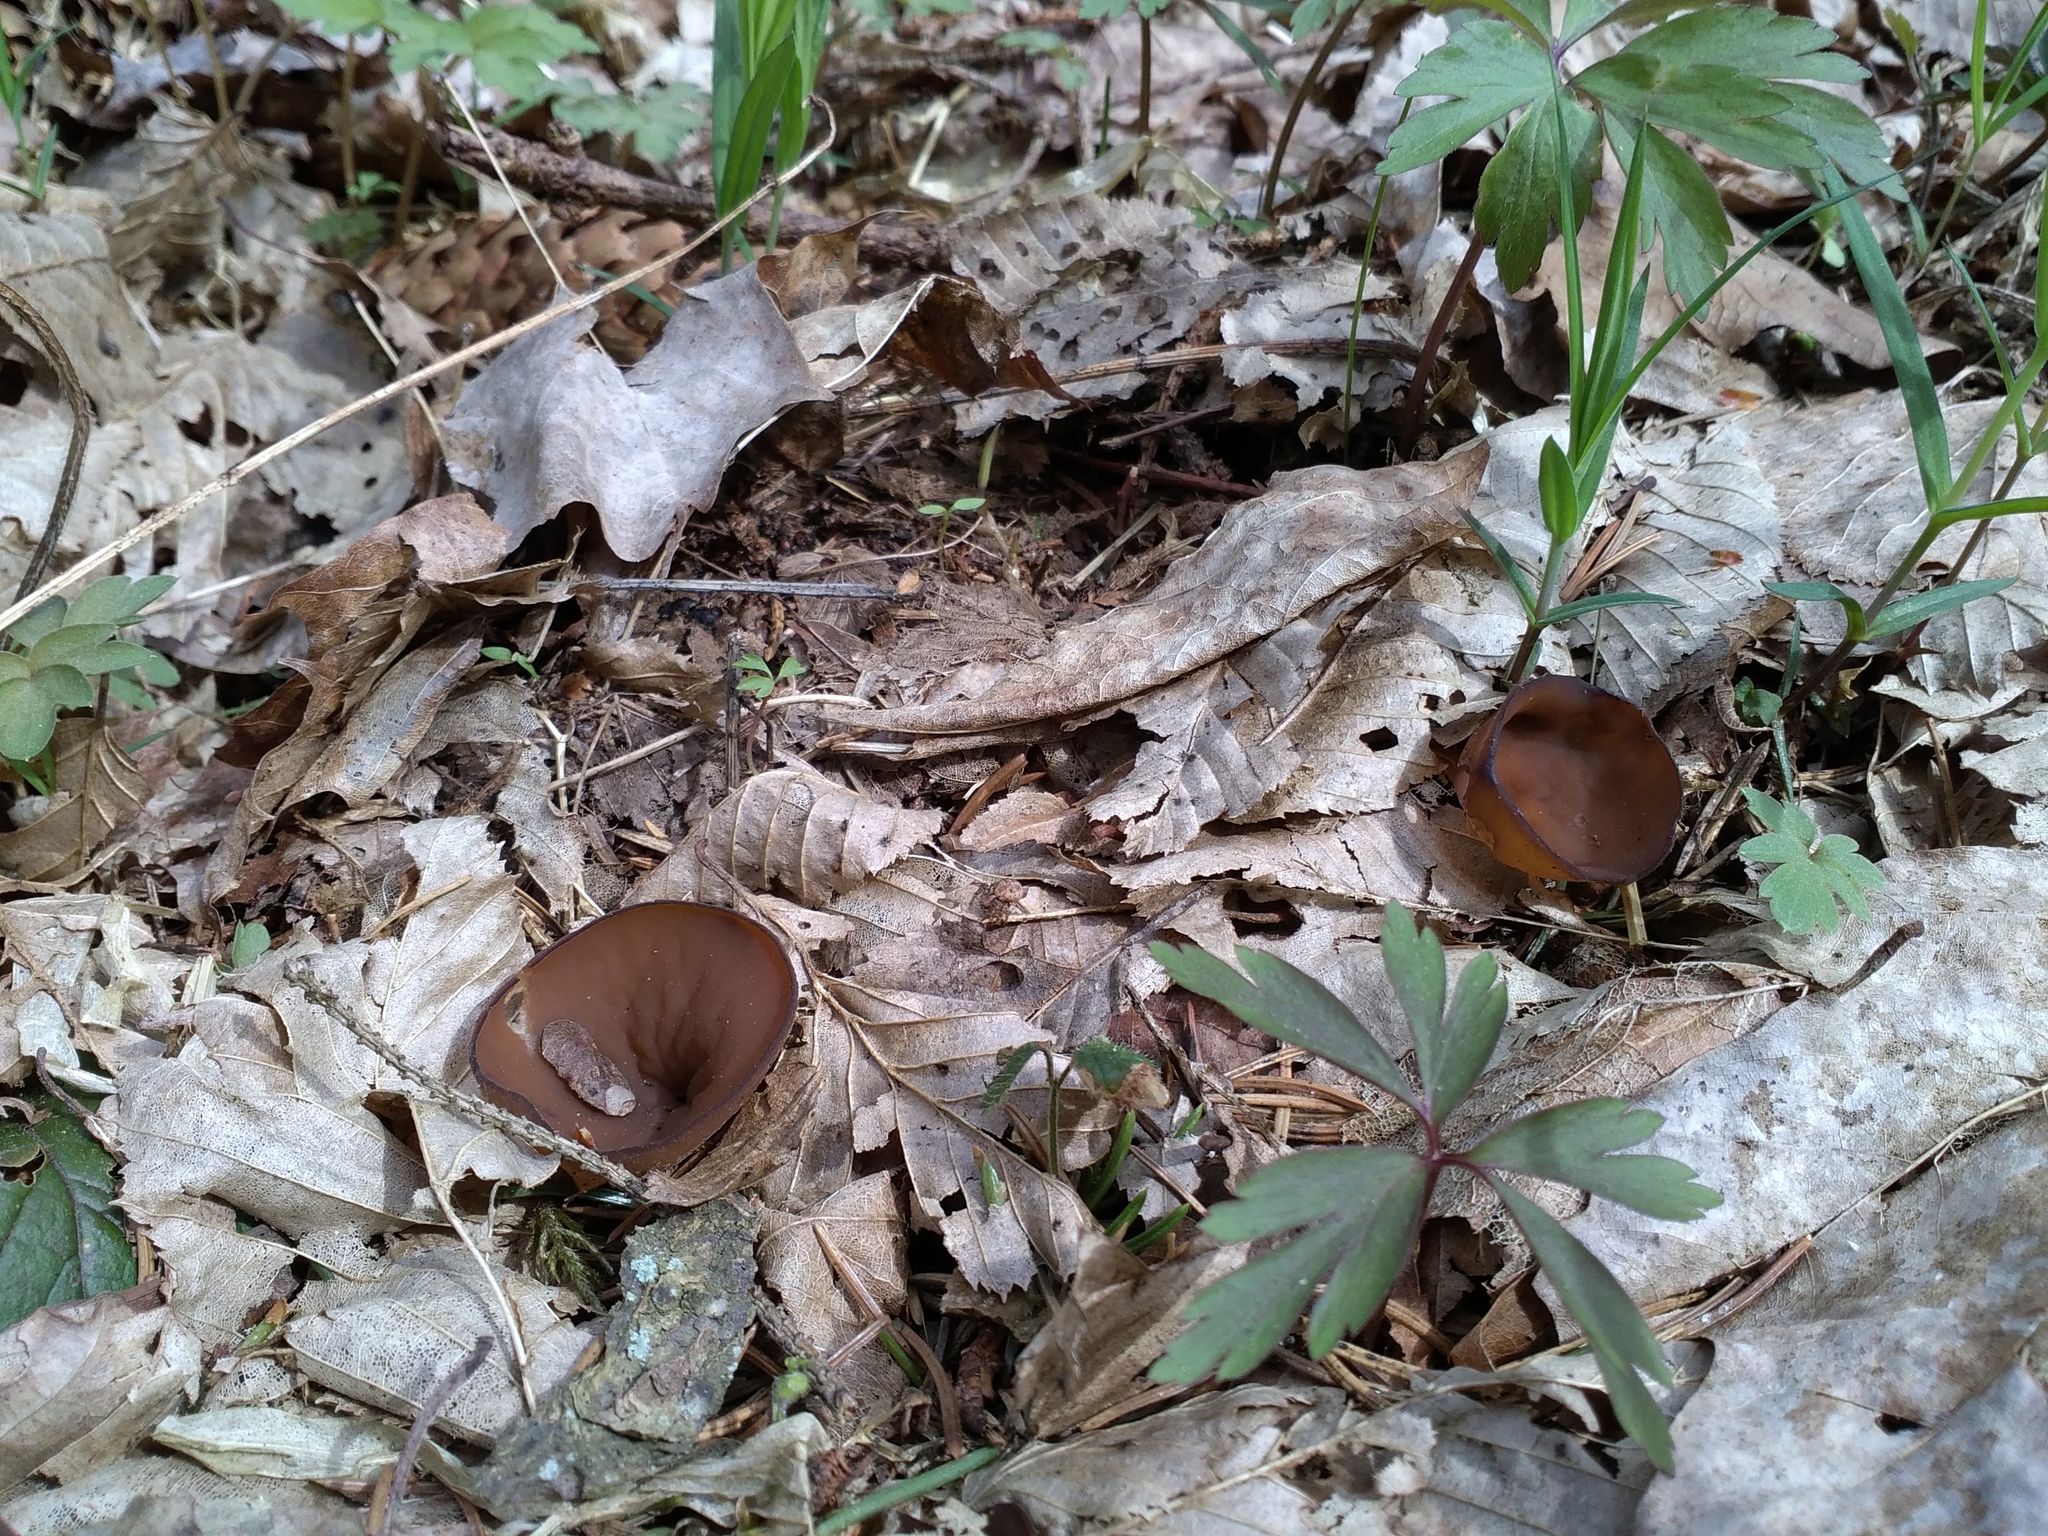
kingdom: Fungi
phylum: Ascomycota
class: Leotiomycetes
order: Helotiales
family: Sclerotiniaceae
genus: Dumontinia
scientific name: Dumontinia tuberosa
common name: Anemone cup
